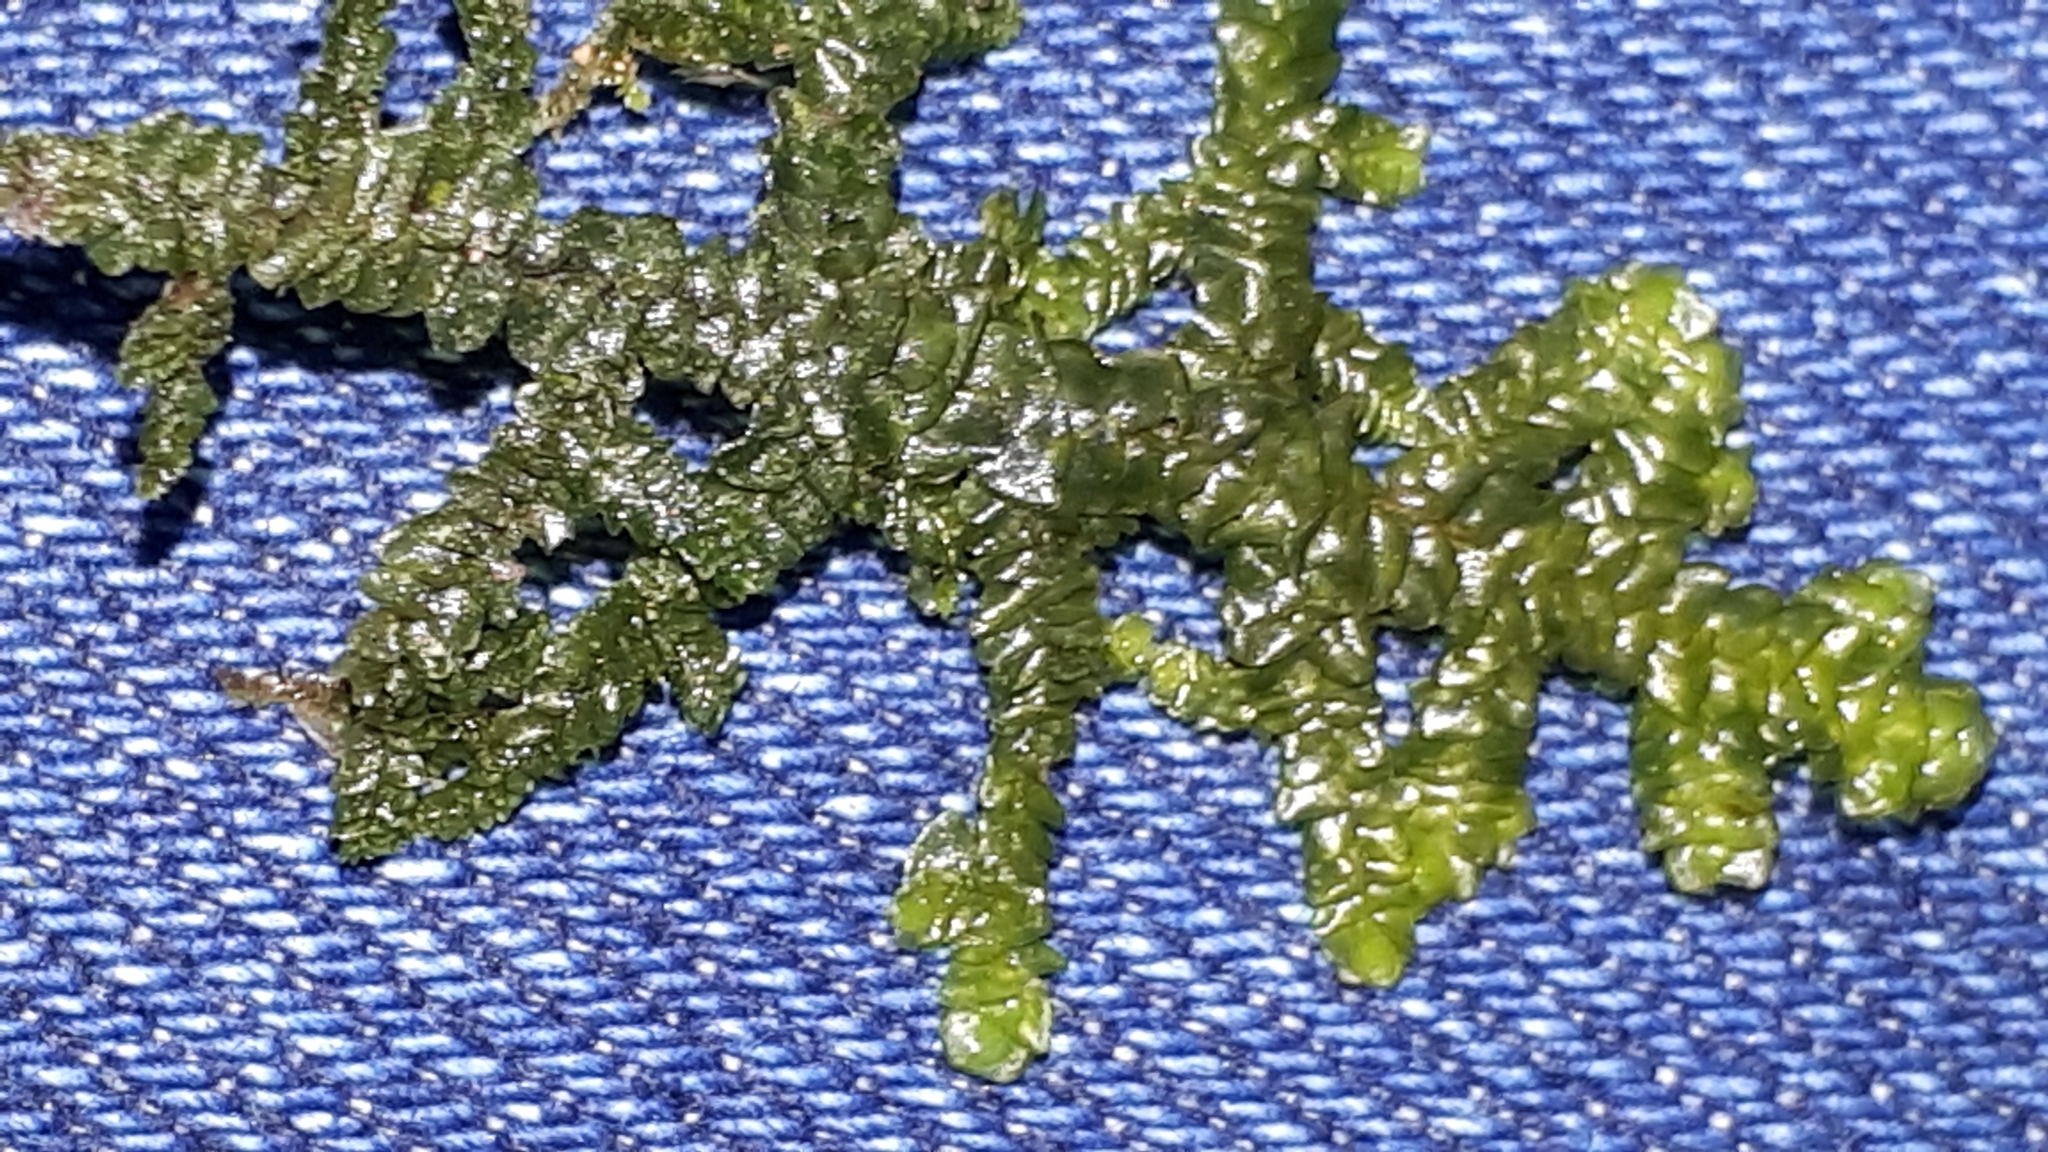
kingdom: Plantae
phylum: Marchantiophyta
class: Jungermanniopsida
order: Porellales
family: Porellaceae
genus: Porella
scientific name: Porella platyphylla
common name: Wall scalewort
